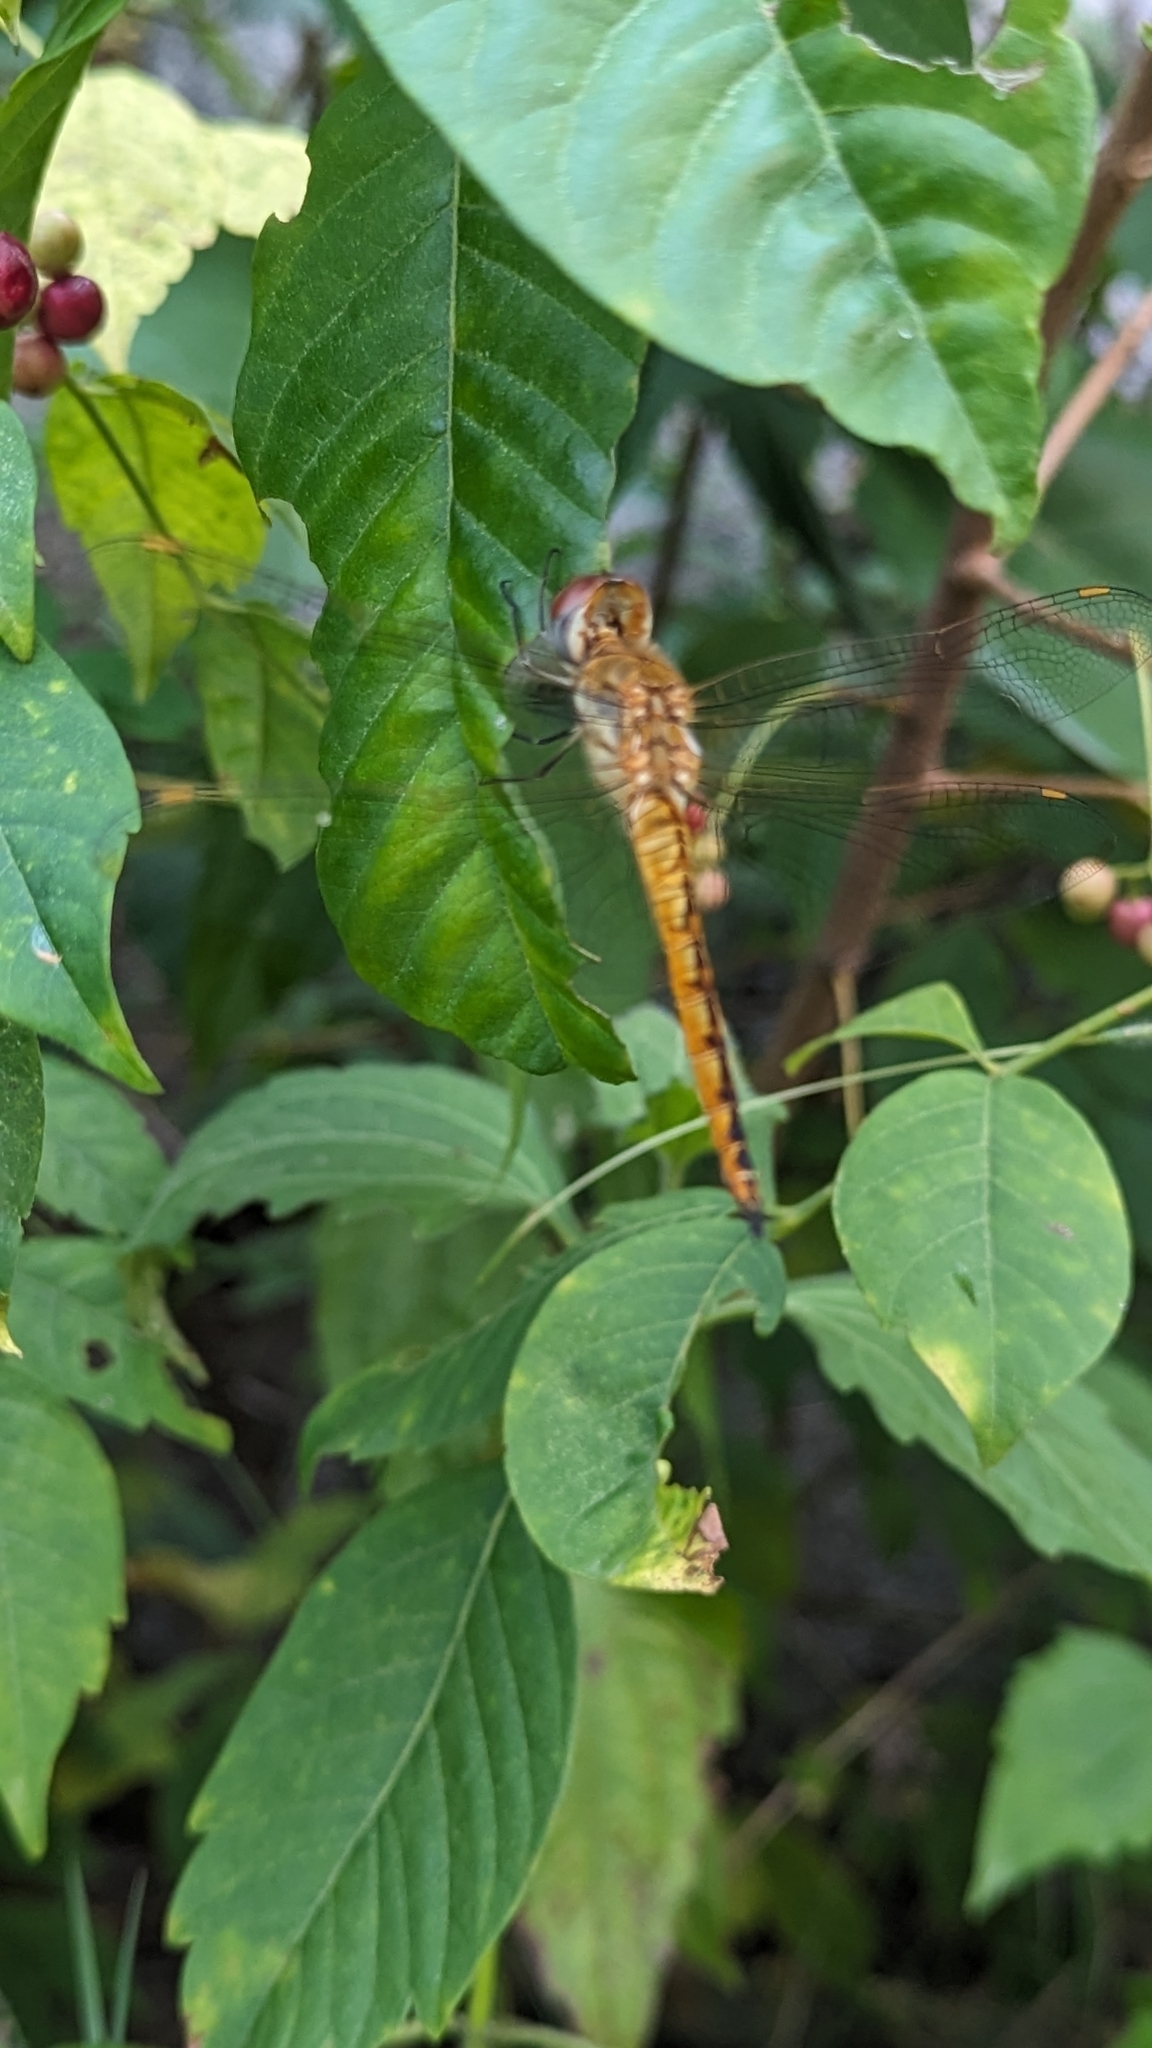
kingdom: Animalia
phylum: Arthropoda
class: Insecta
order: Odonata
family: Libellulidae
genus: Pantala
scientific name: Pantala flavescens
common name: Wandering glider
